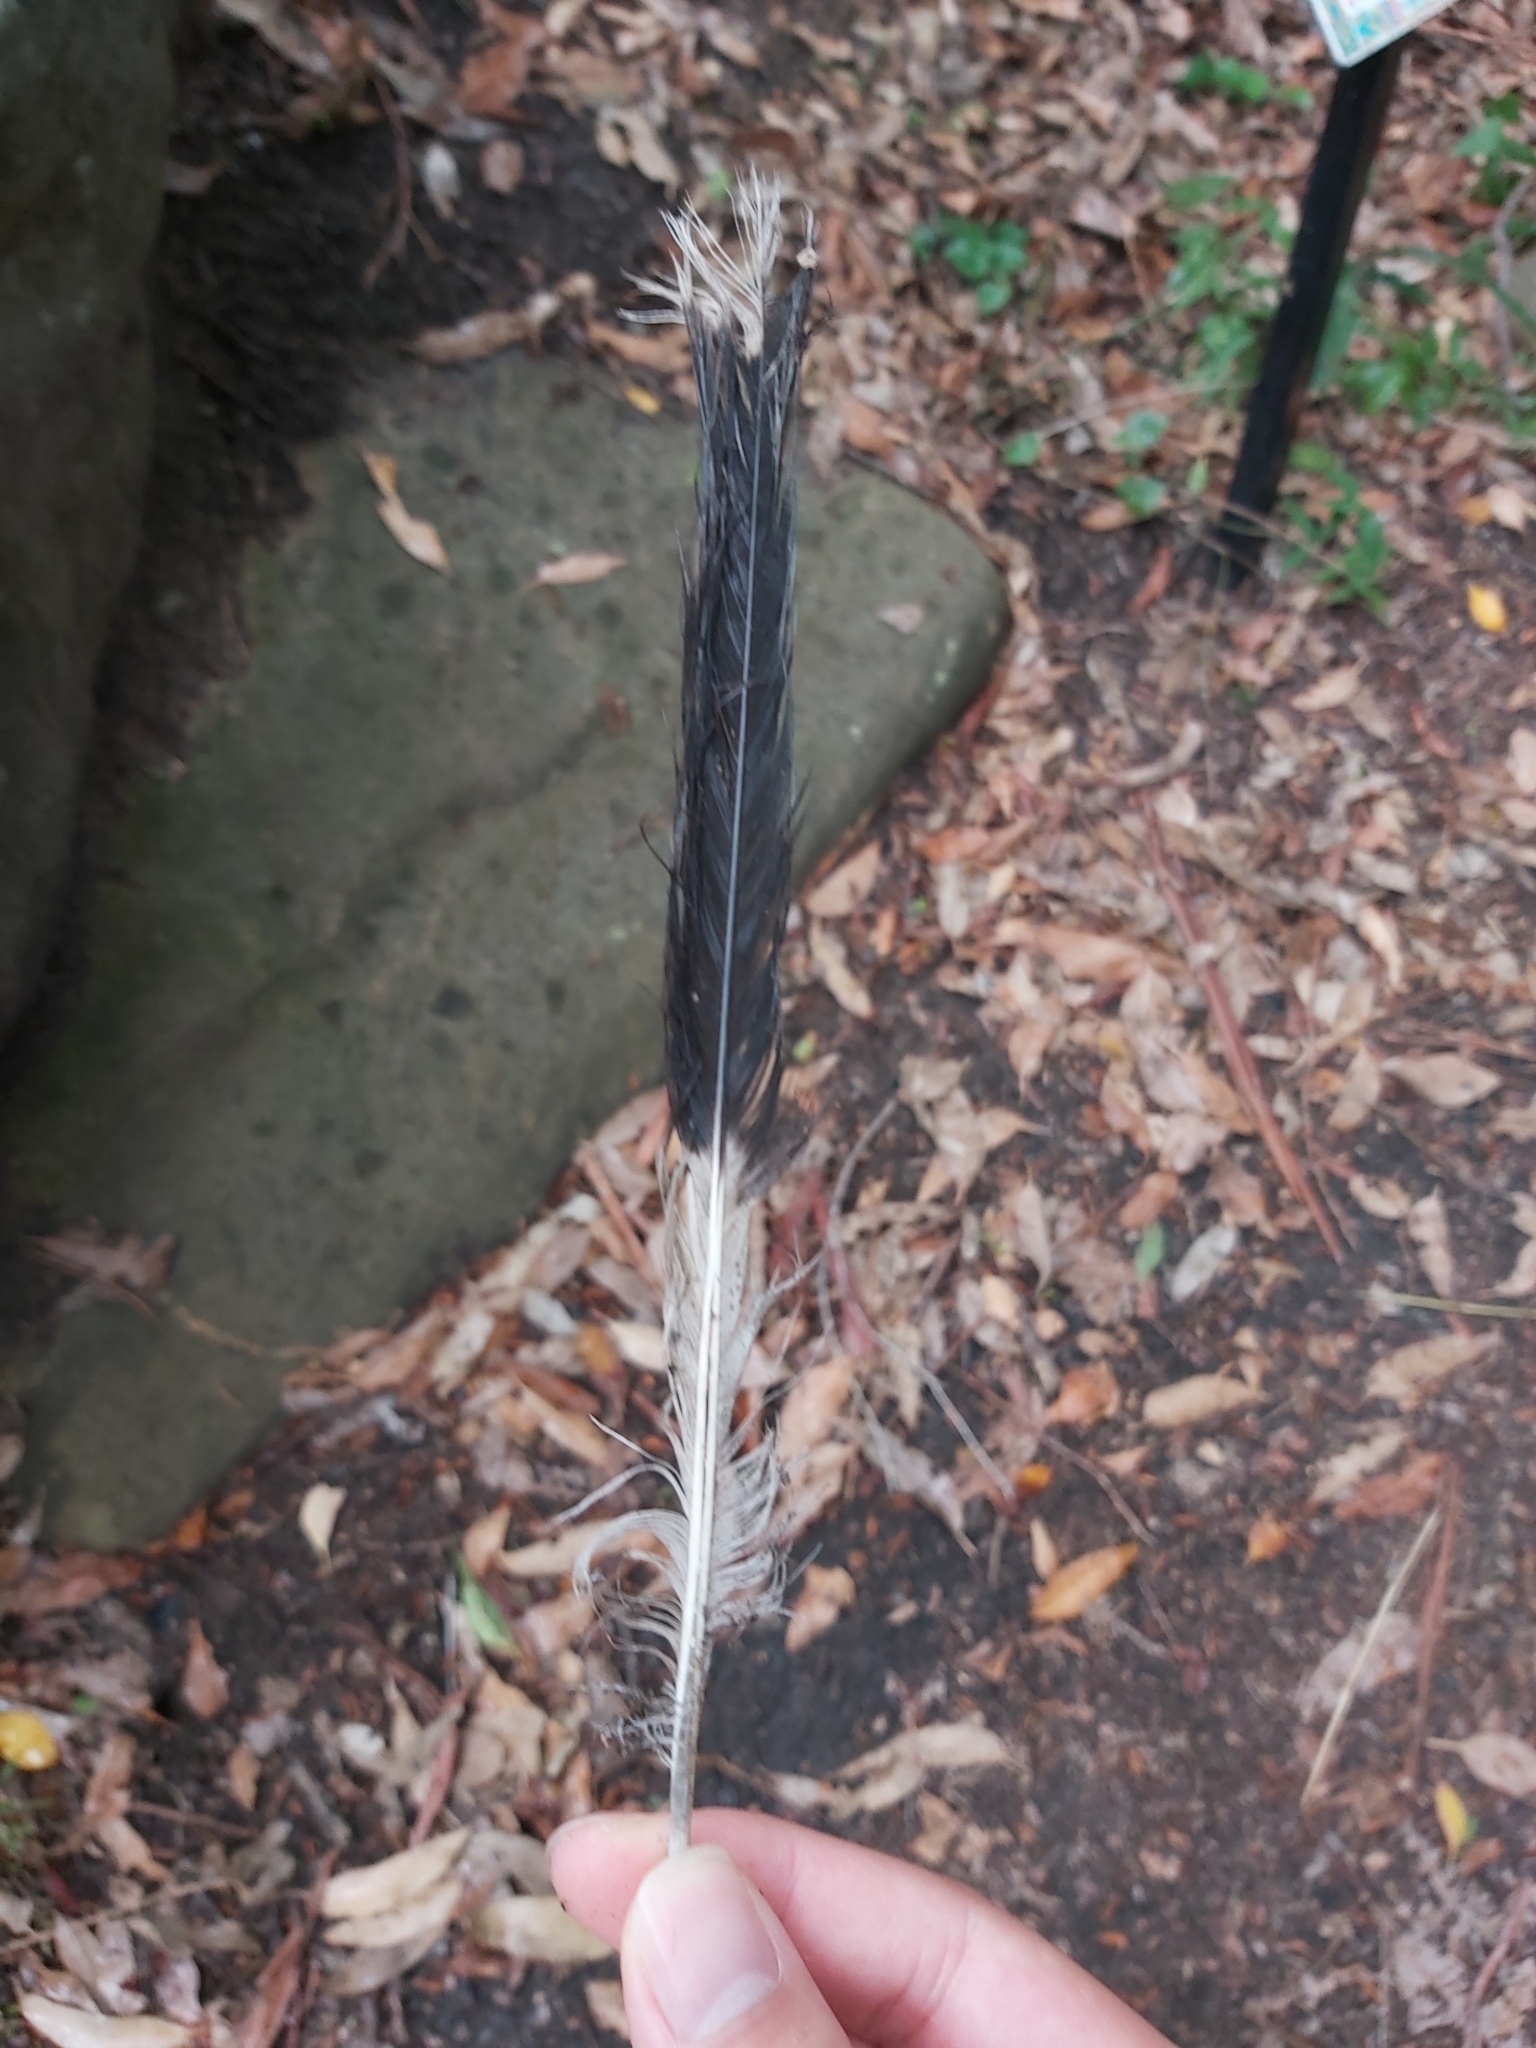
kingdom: Animalia
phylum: Chordata
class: Aves
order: Passeriformes
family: Cracticidae
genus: Strepera
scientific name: Strepera graculina
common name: Pied currawong
